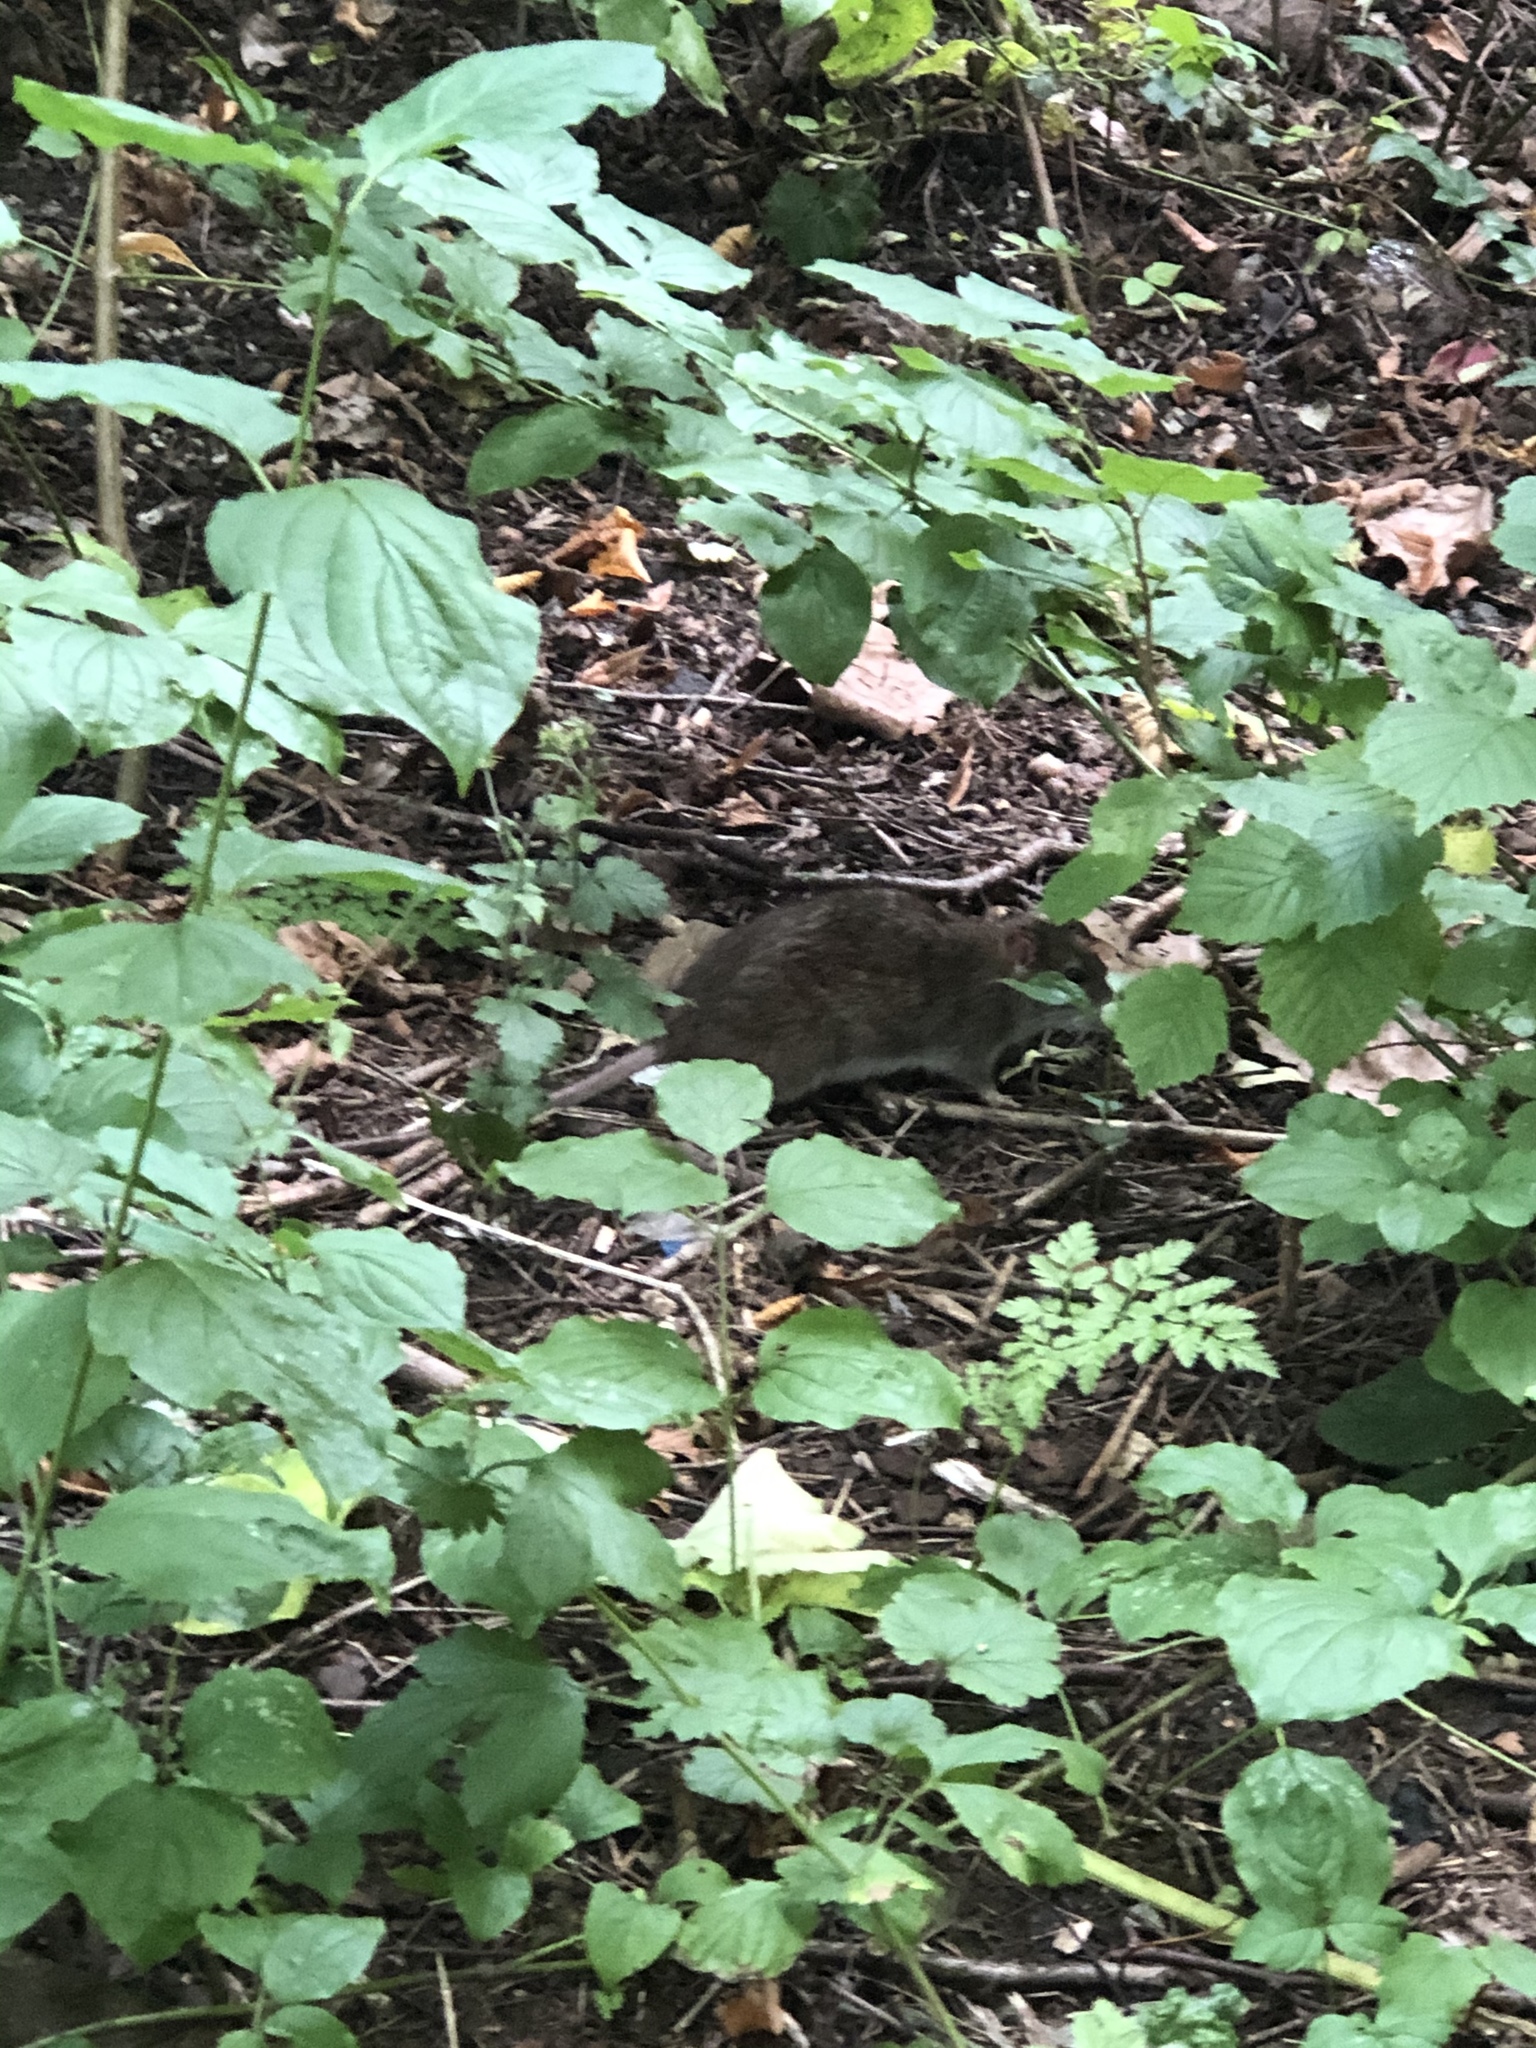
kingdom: Animalia
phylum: Chordata
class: Mammalia
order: Rodentia
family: Muridae
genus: Rattus
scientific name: Rattus norvegicus
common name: Brown rat
